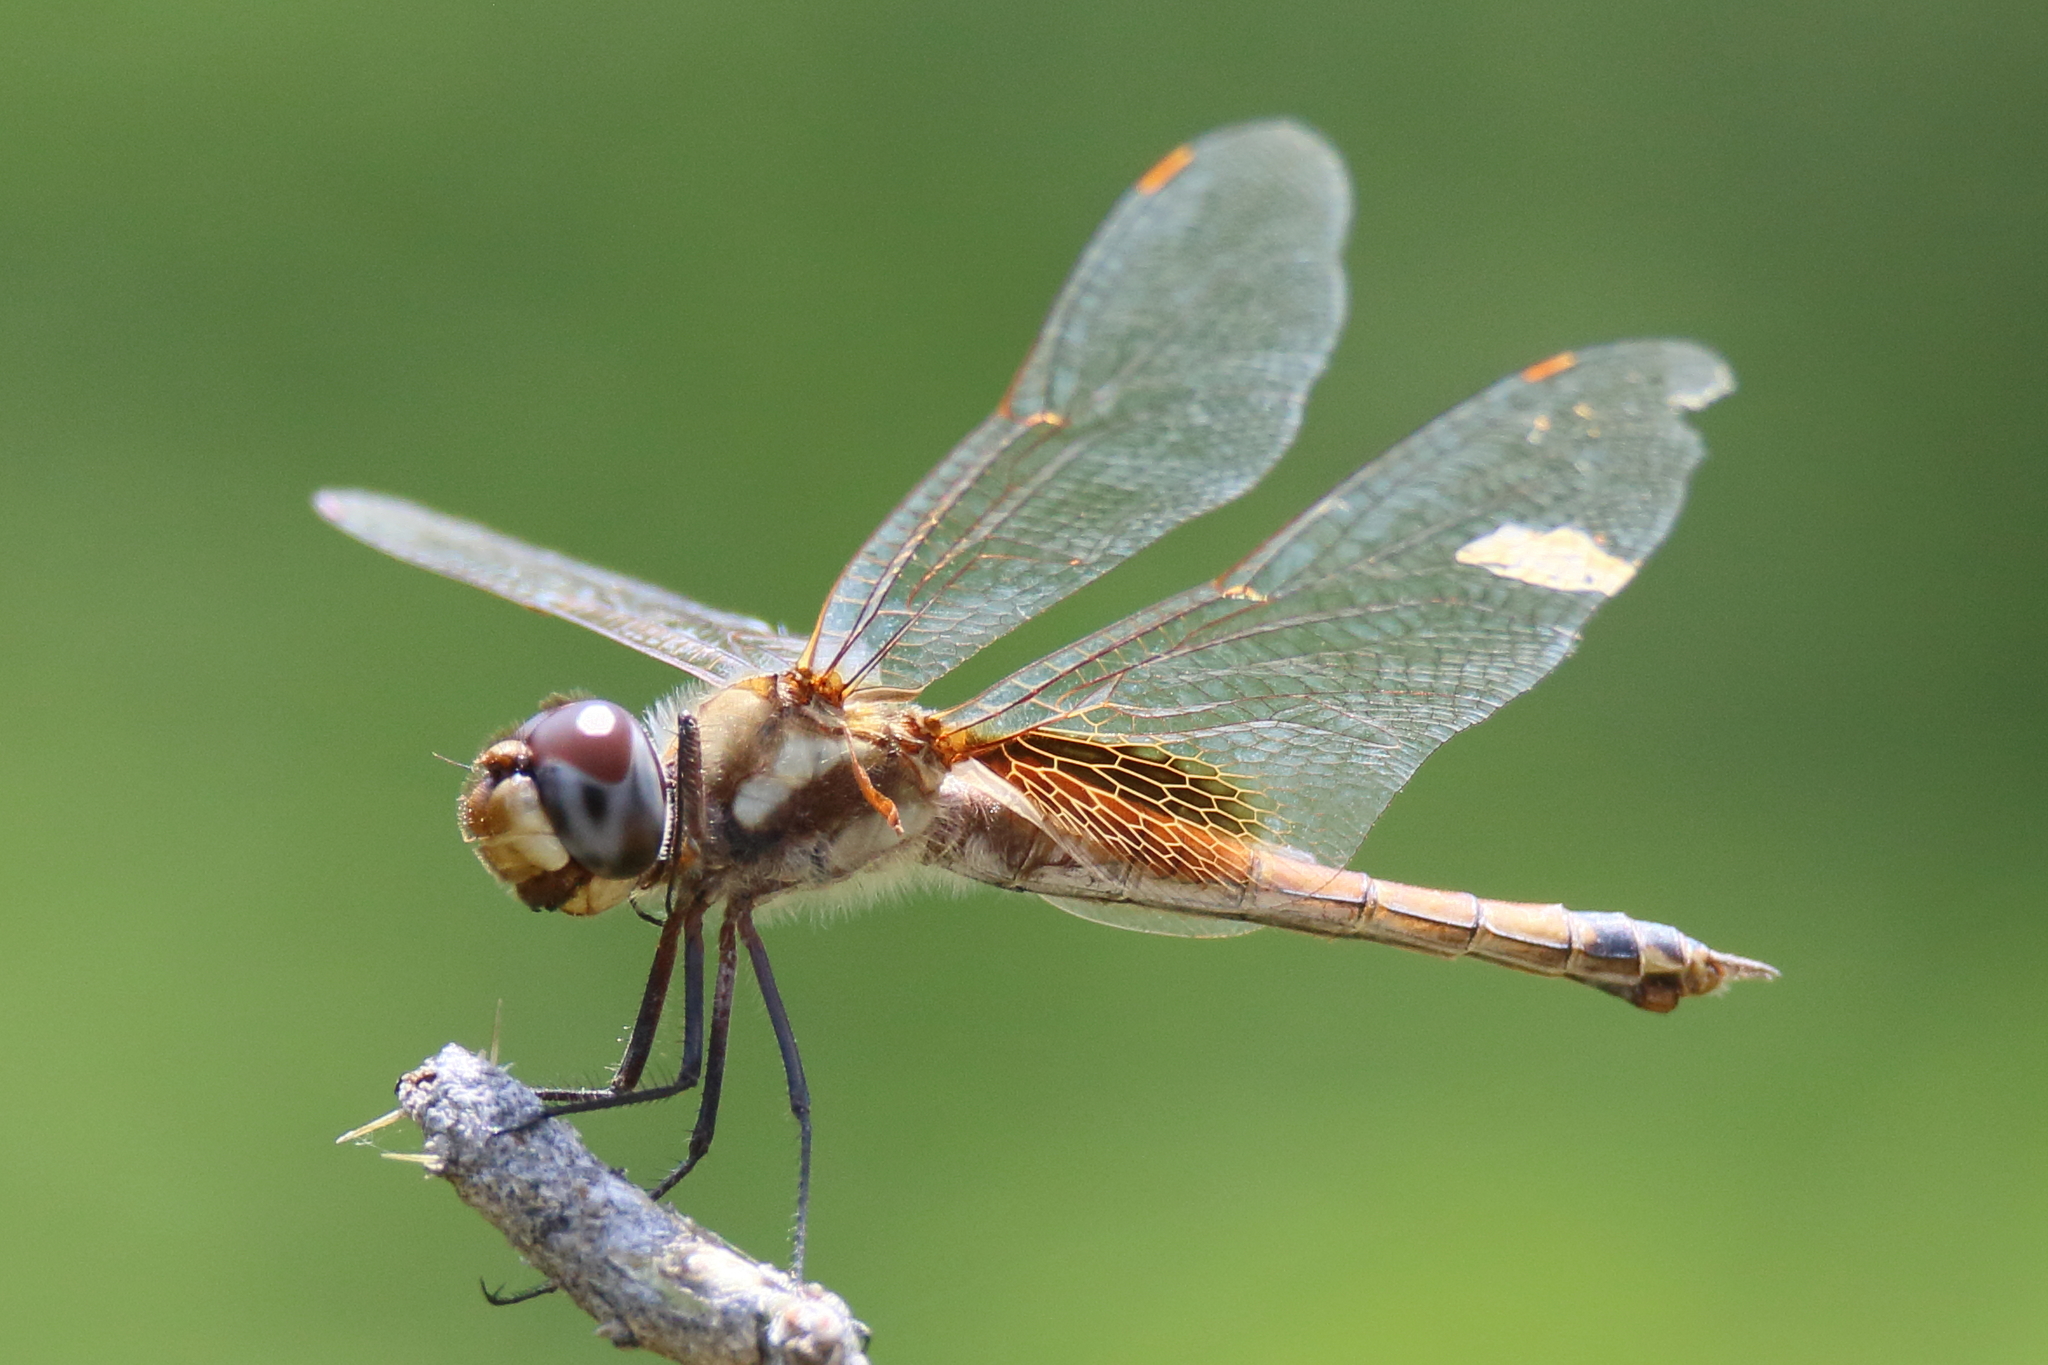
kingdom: Animalia
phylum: Arthropoda
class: Insecta
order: Odonata
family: Libellulidae
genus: Tramea
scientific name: Tramea darwini
